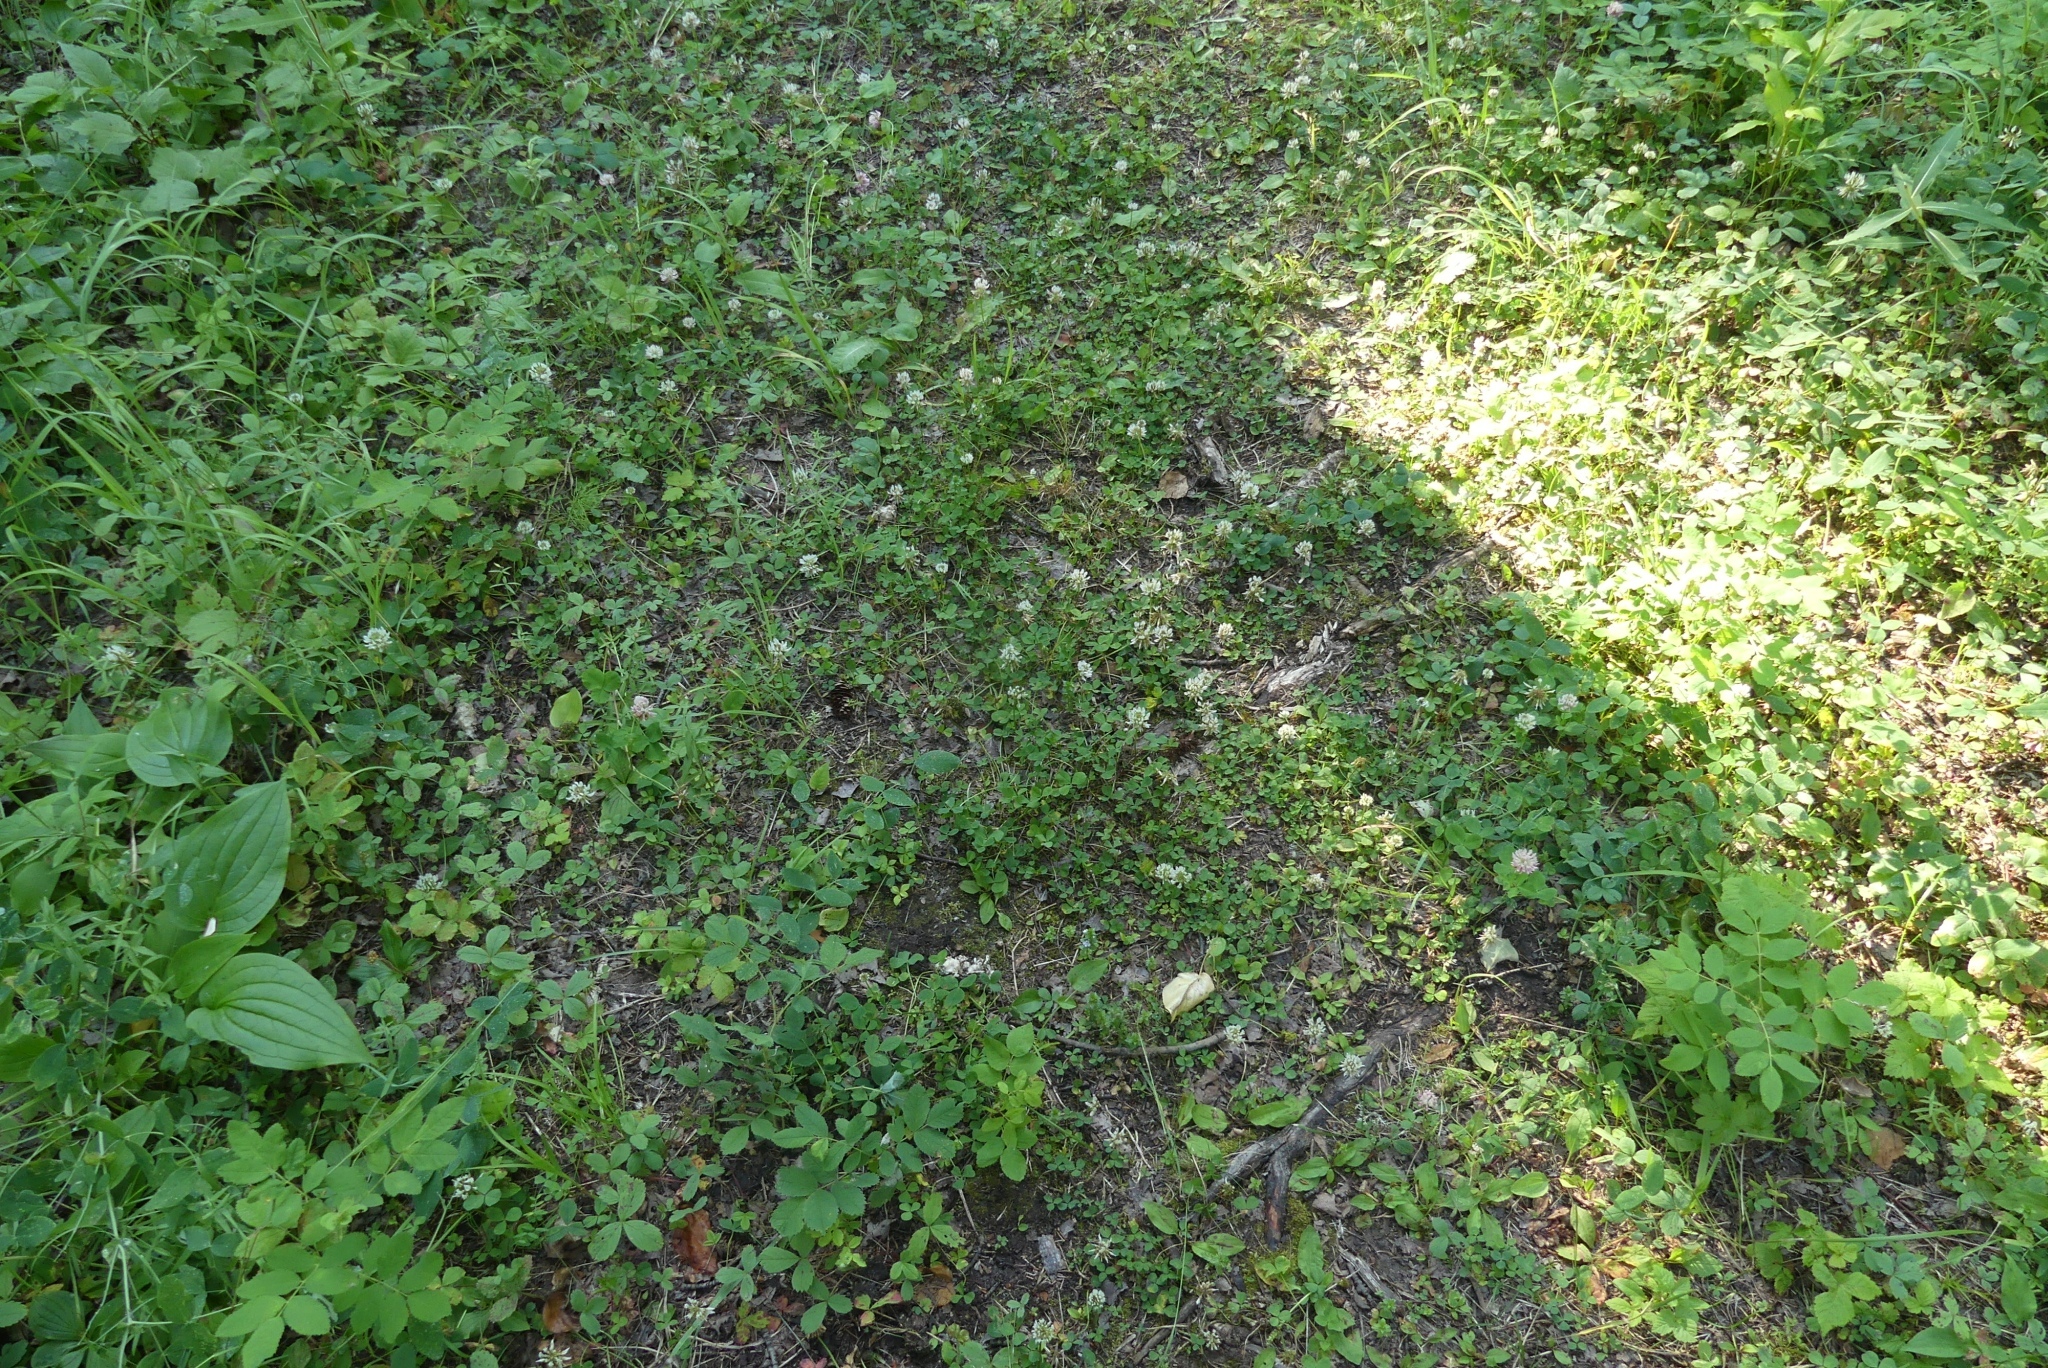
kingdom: Plantae
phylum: Tracheophyta
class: Magnoliopsida
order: Fabales
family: Fabaceae
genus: Trifolium
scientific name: Trifolium repens
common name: White clover
